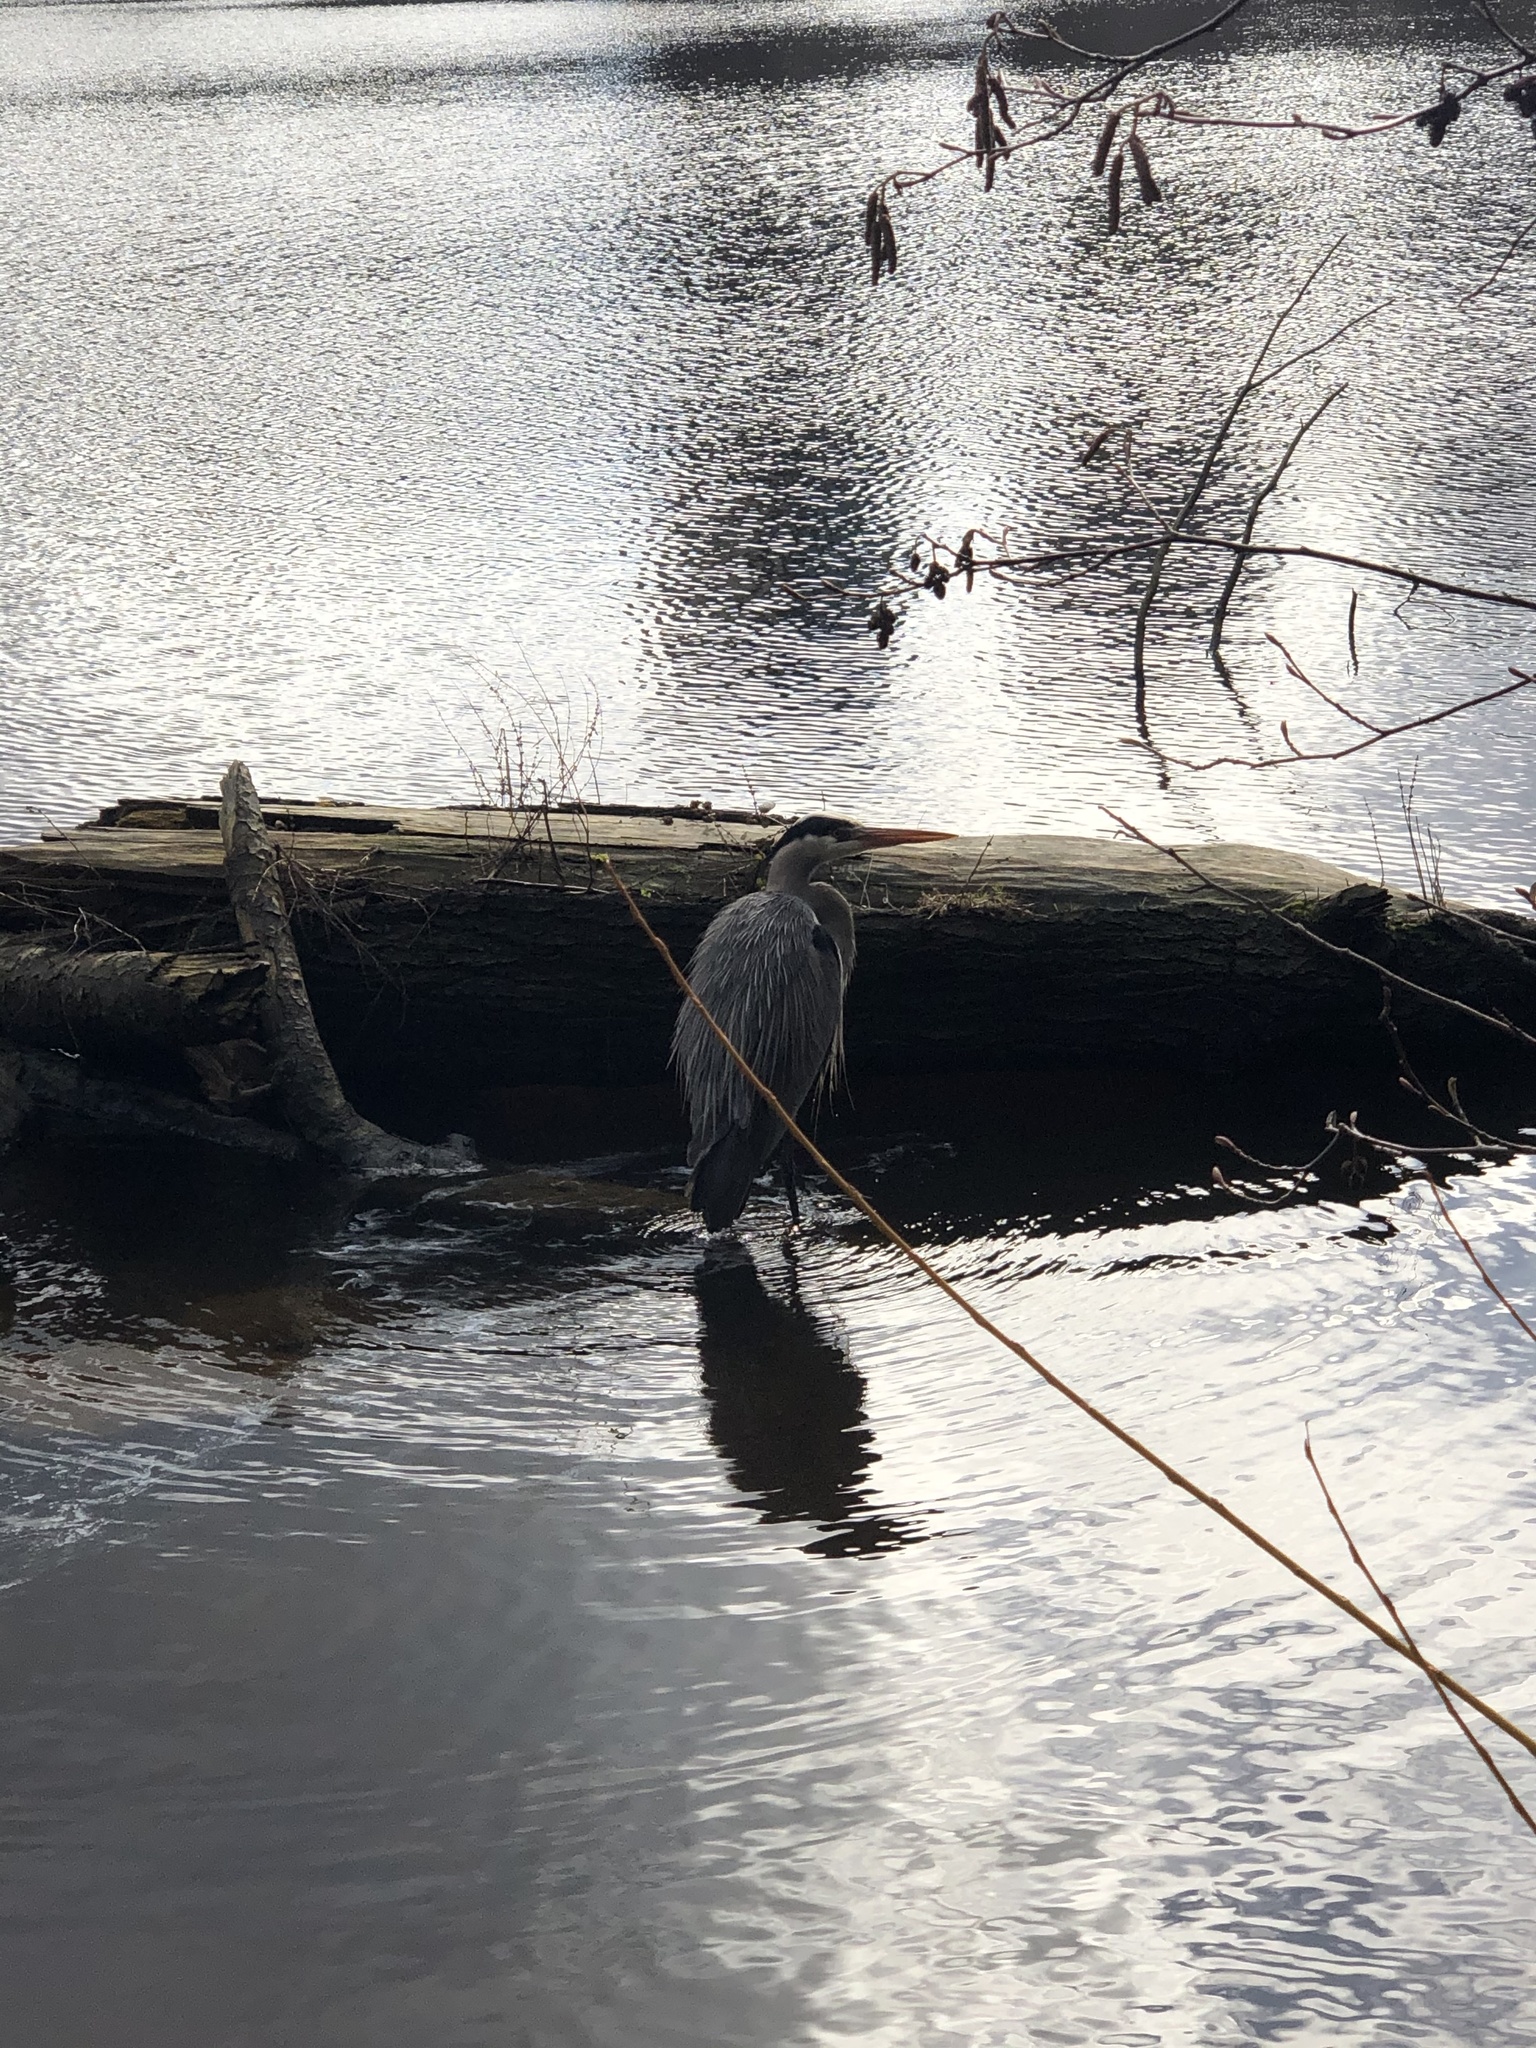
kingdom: Animalia
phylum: Chordata
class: Aves
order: Pelecaniformes
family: Ardeidae
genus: Ardea
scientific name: Ardea herodias
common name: Great blue heron
